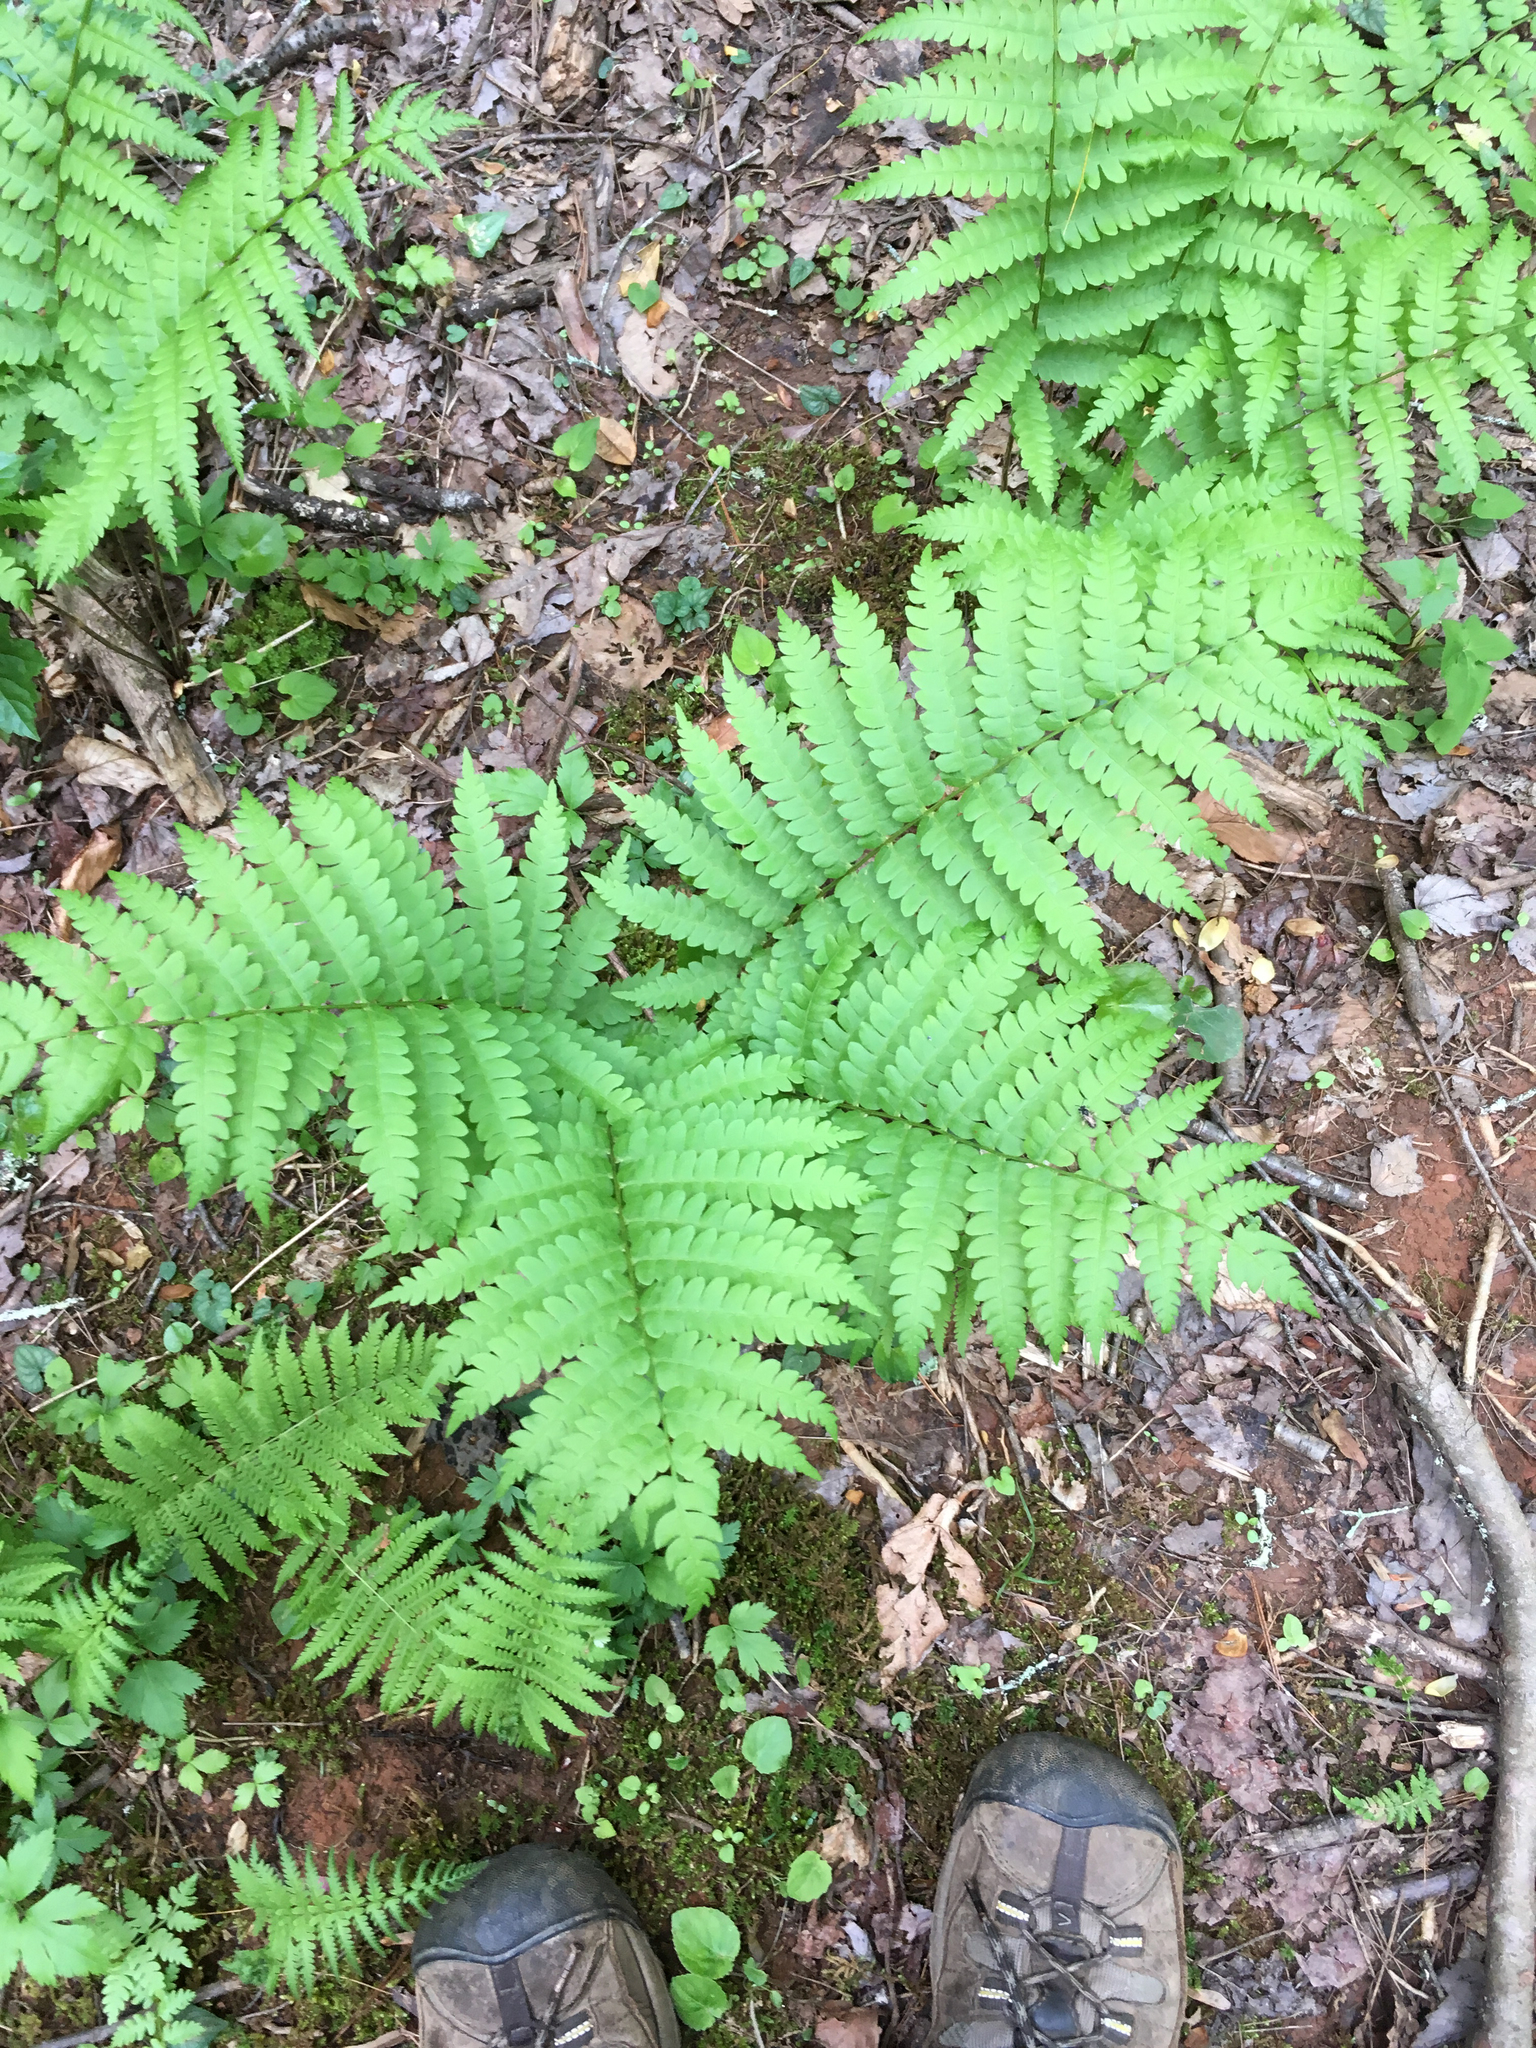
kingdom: Plantae
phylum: Tracheophyta
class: Polypodiopsida
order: Osmundales
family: Osmundaceae
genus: Osmundastrum
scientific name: Osmundastrum cinnamomeum
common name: Cinnamon fern
